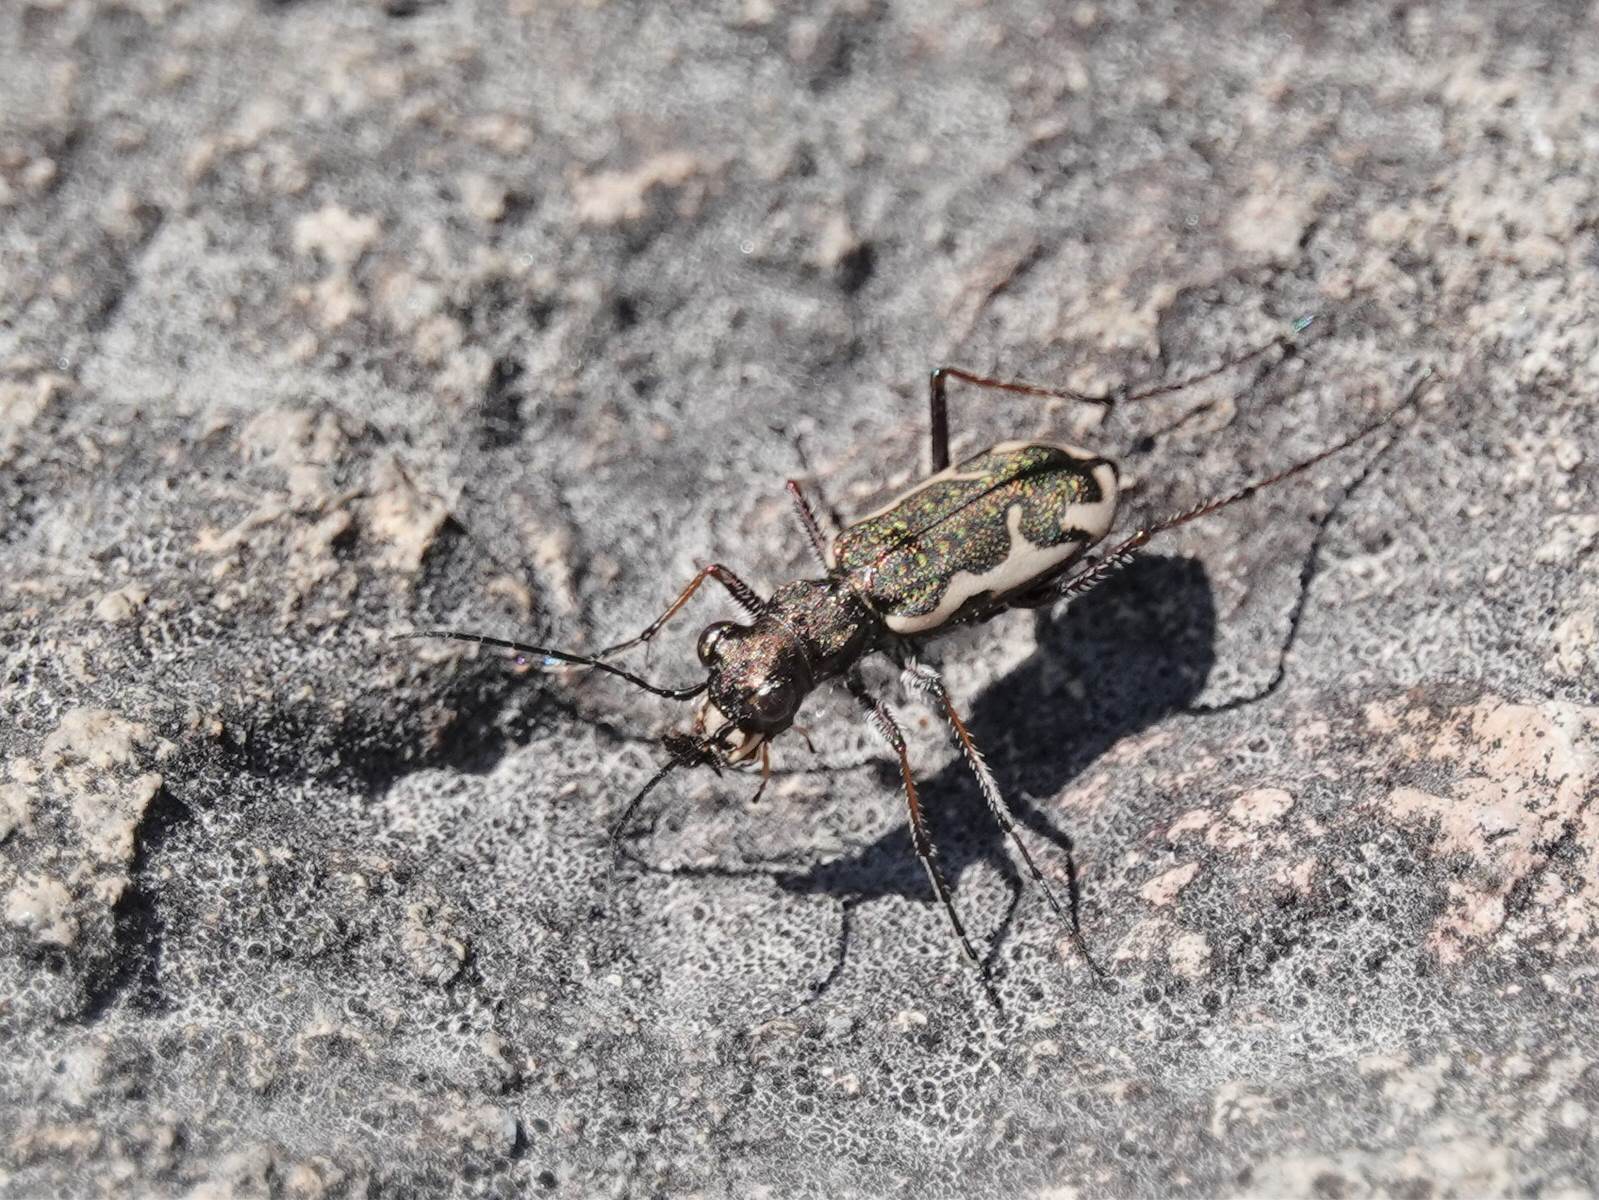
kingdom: Animalia
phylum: Arthropoda
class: Insecta
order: Coleoptera
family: Carabidae
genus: Neocicindela
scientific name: Neocicindela tuberculata
